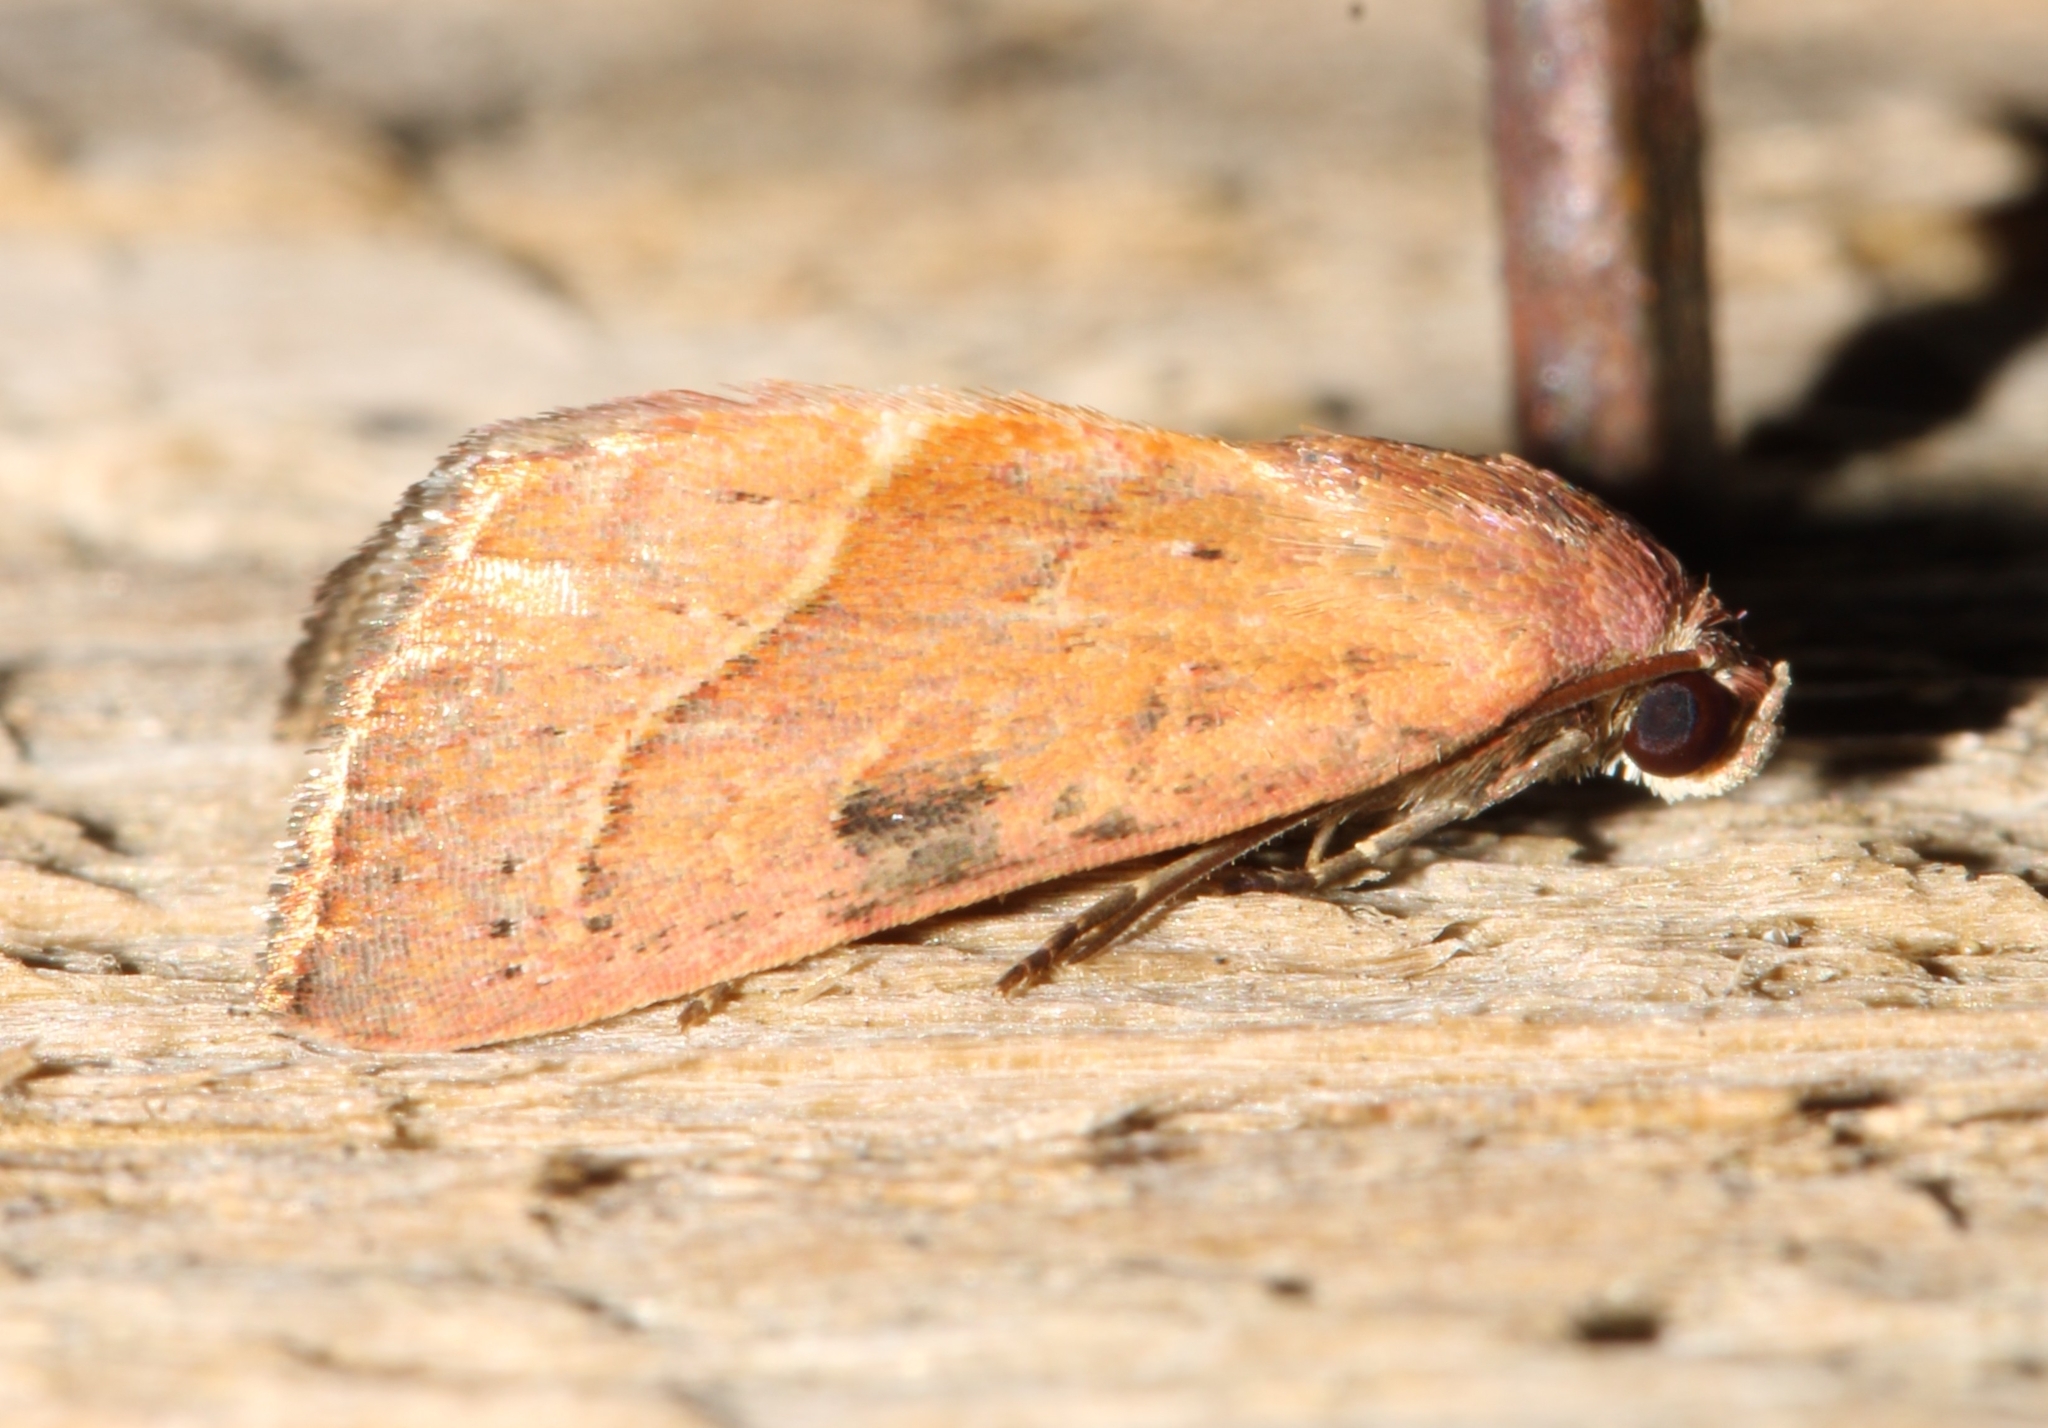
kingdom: Animalia
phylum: Arthropoda
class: Insecta
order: Lepidoptera
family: Noctuidae
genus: Galgula
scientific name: Galgula partita
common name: Wedgeling
